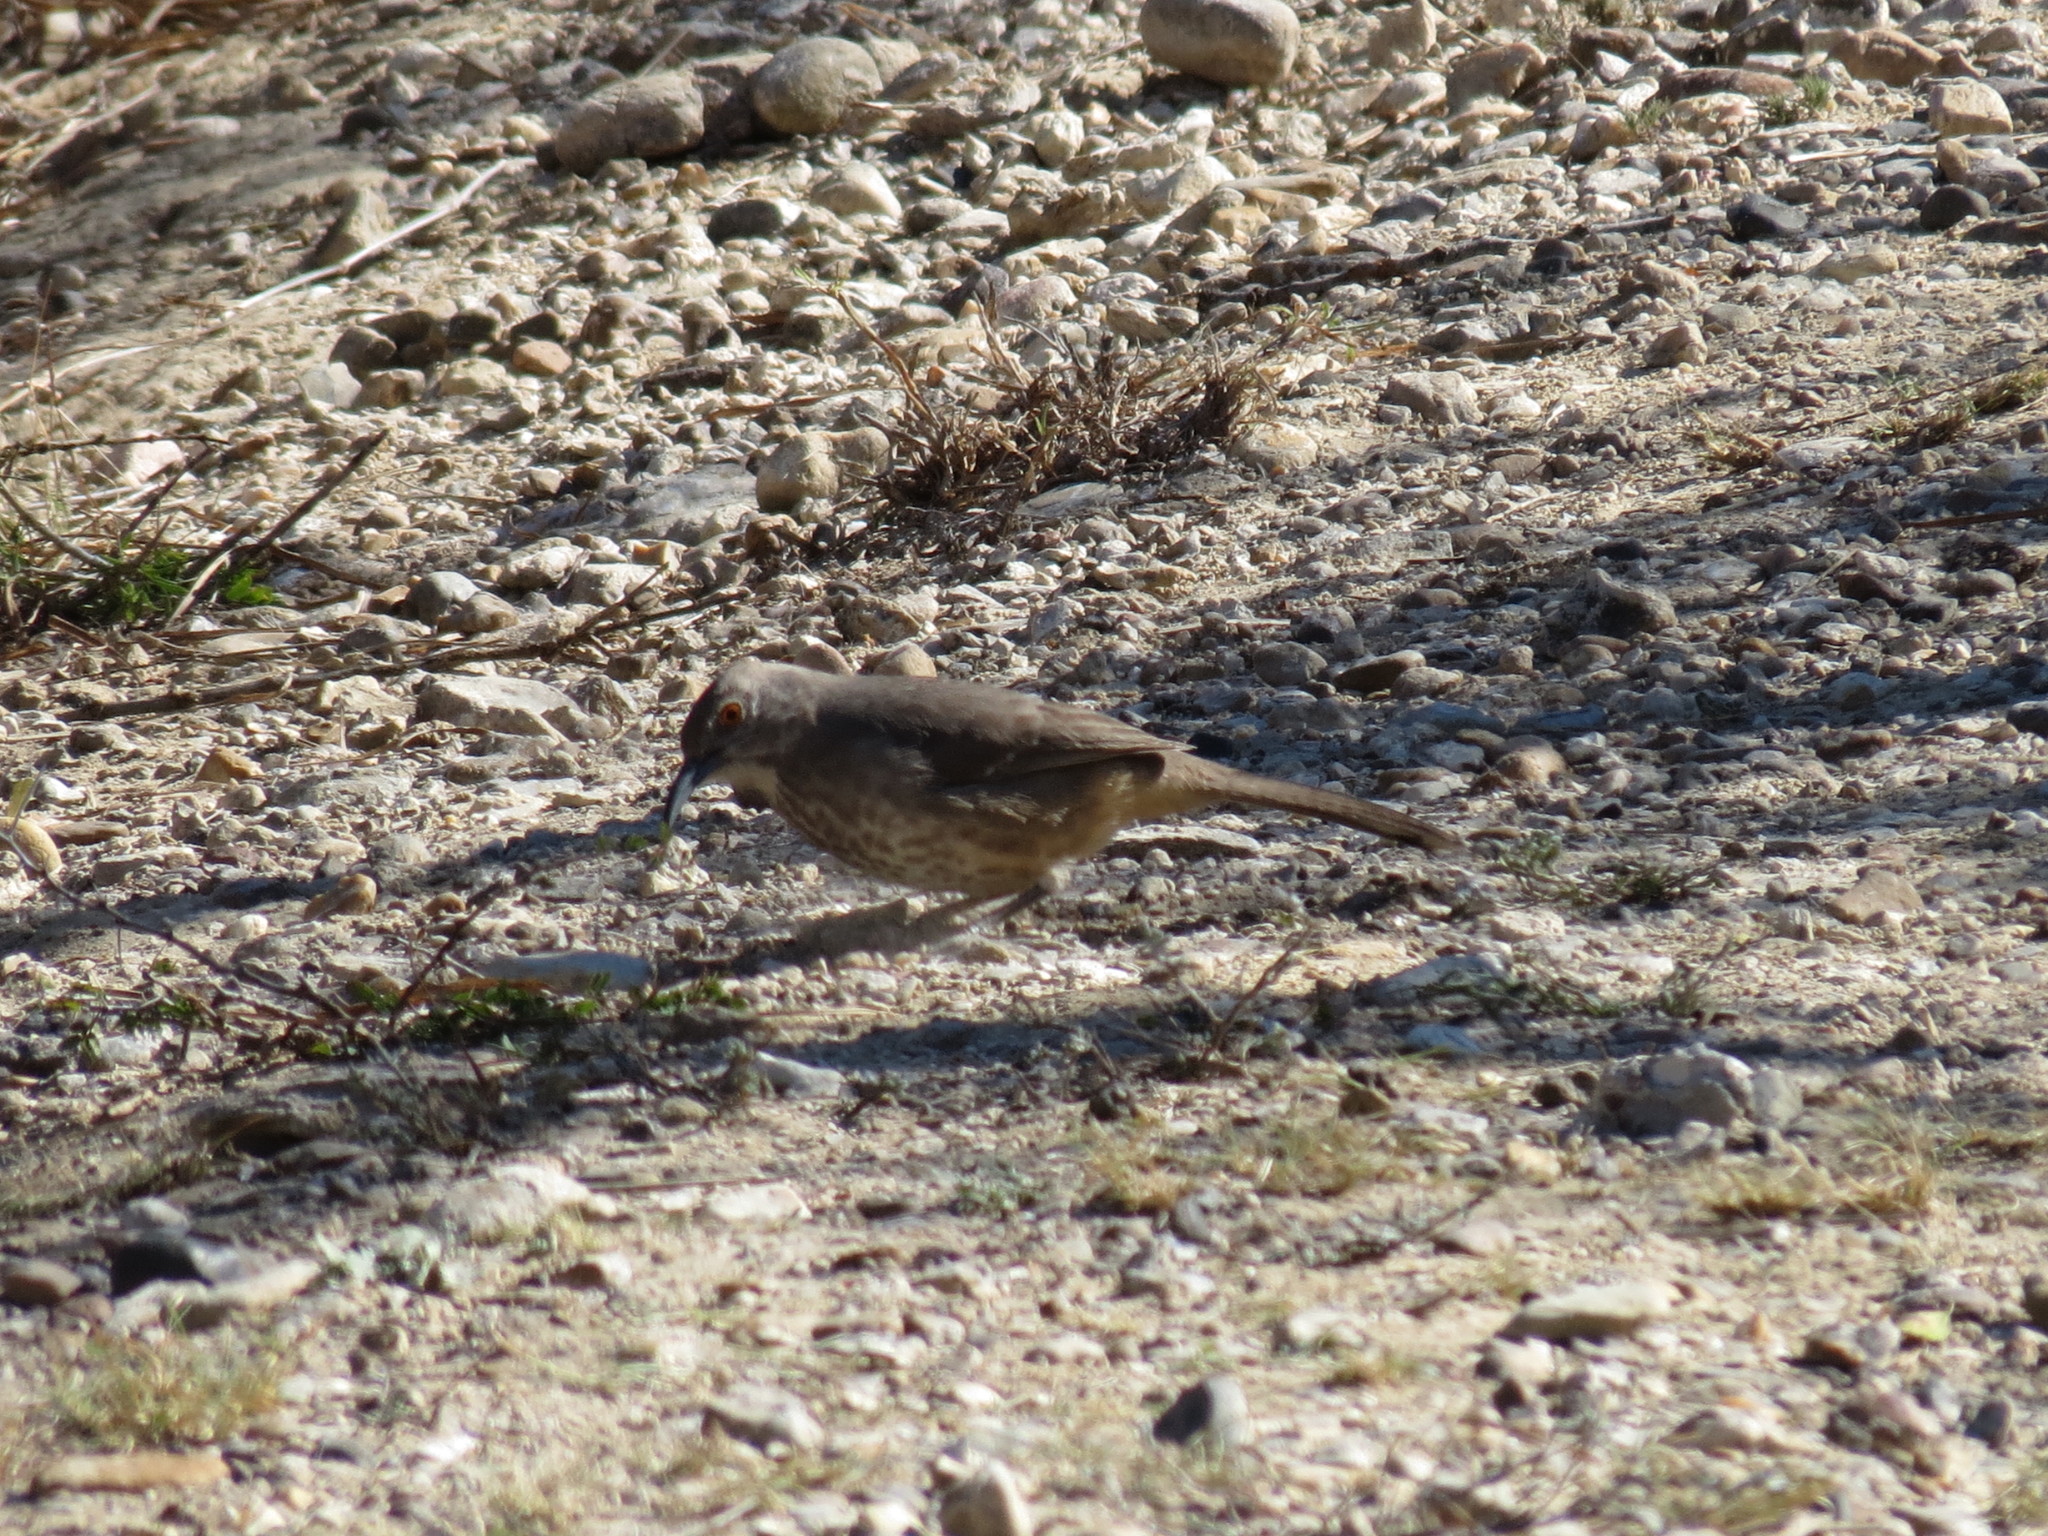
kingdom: Animalia
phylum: Chordata
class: Aves
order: Passeriformes
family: Mimidae
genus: Toxostoma
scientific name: Toxostoma curvirostre
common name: Curve-billed thrasher
